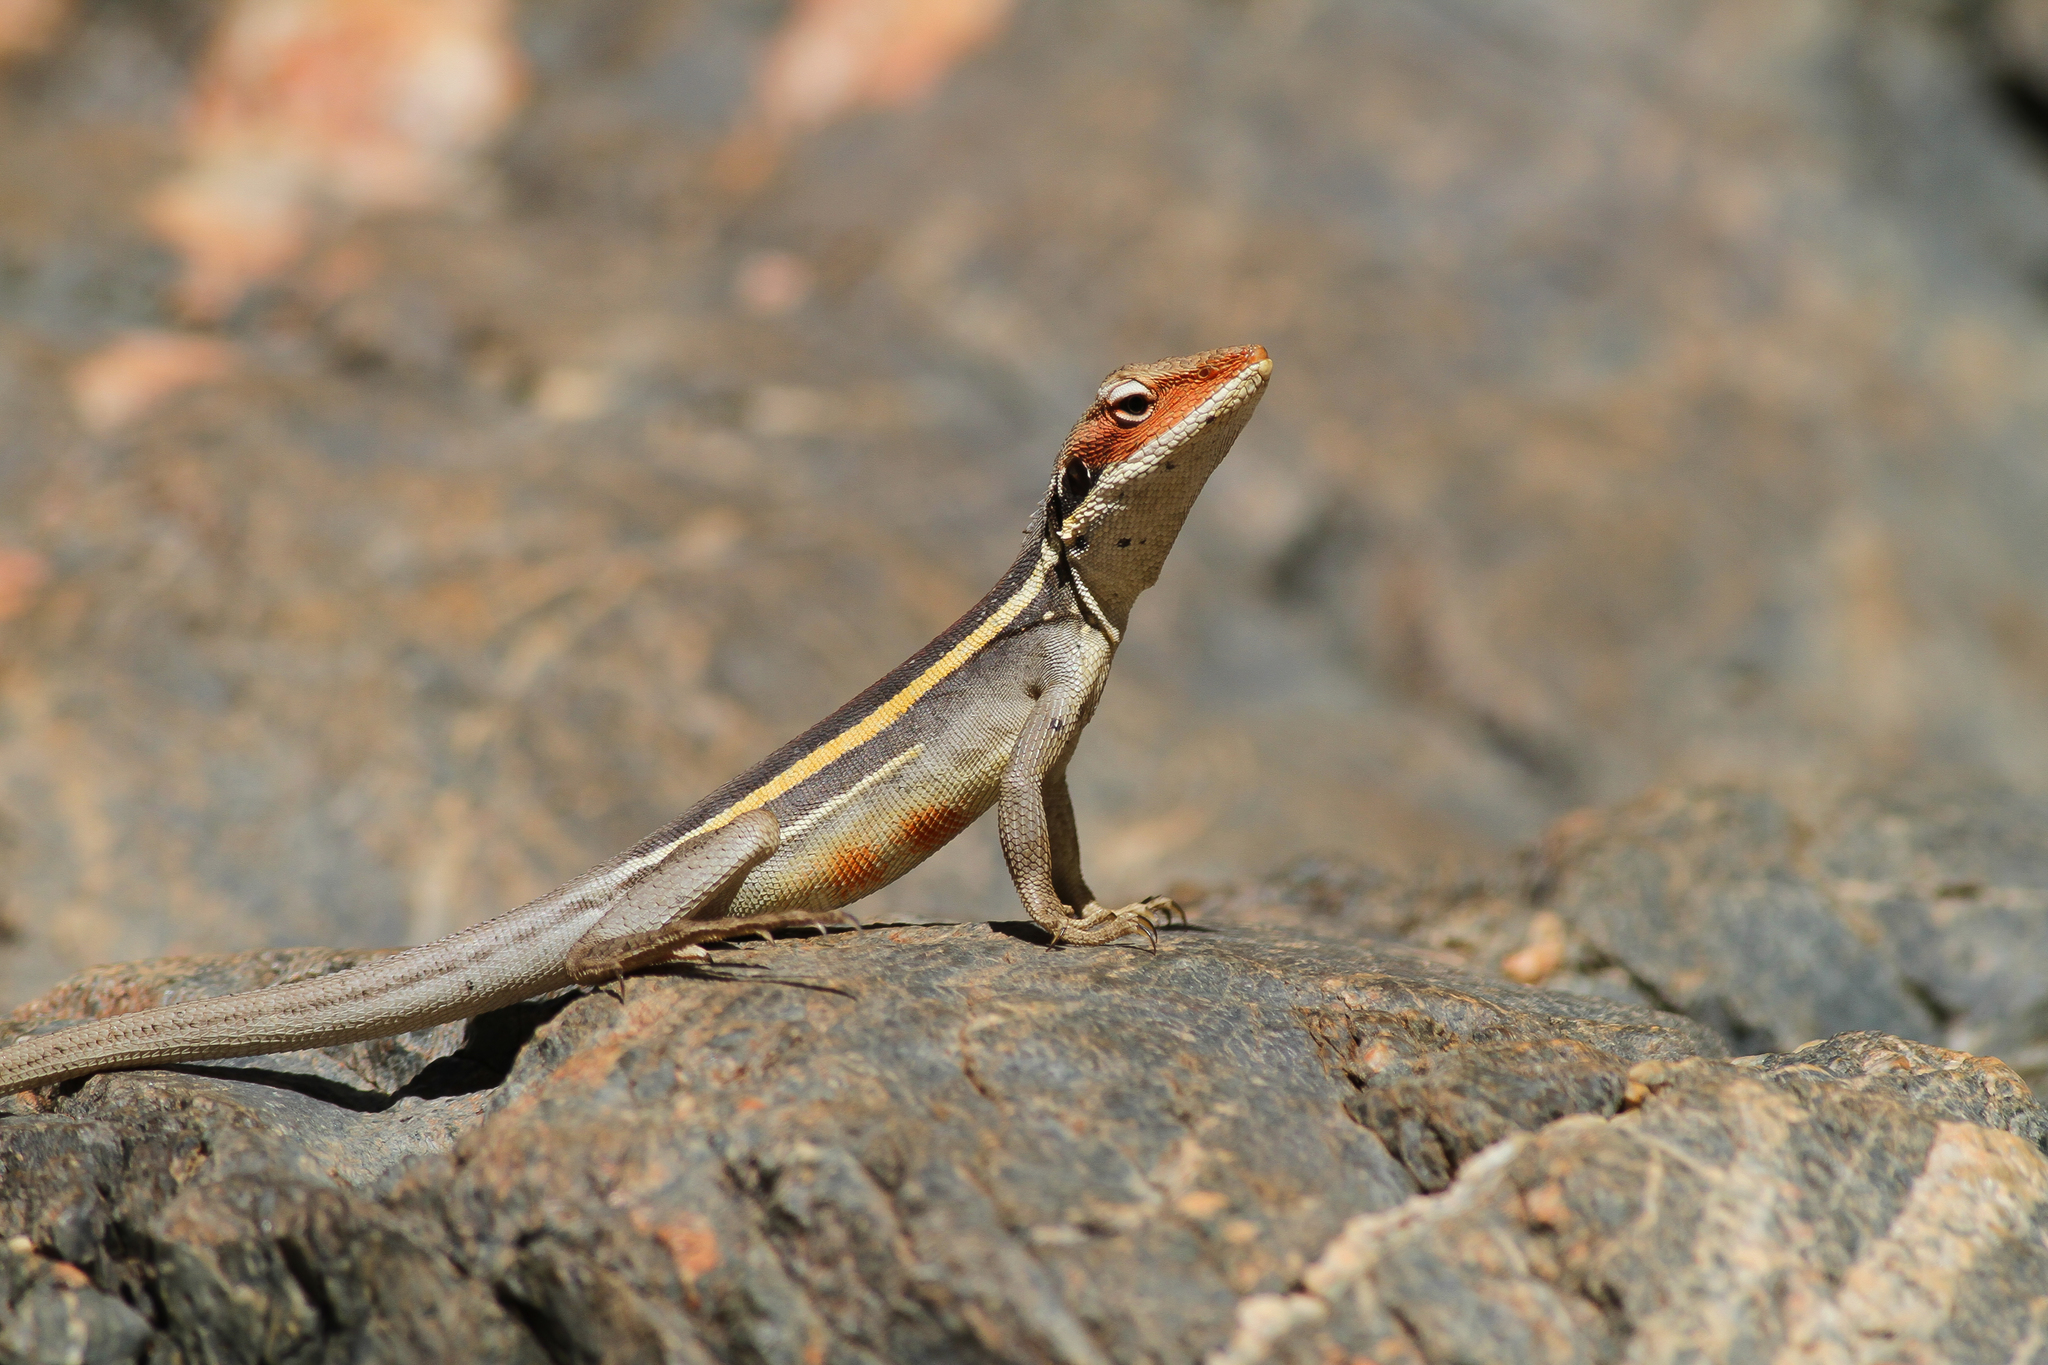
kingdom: Animalia
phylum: Chordata
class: Squamata
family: Agamidae
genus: Gowidon
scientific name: Gowidon longirostris
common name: Long-nosed water dragon
